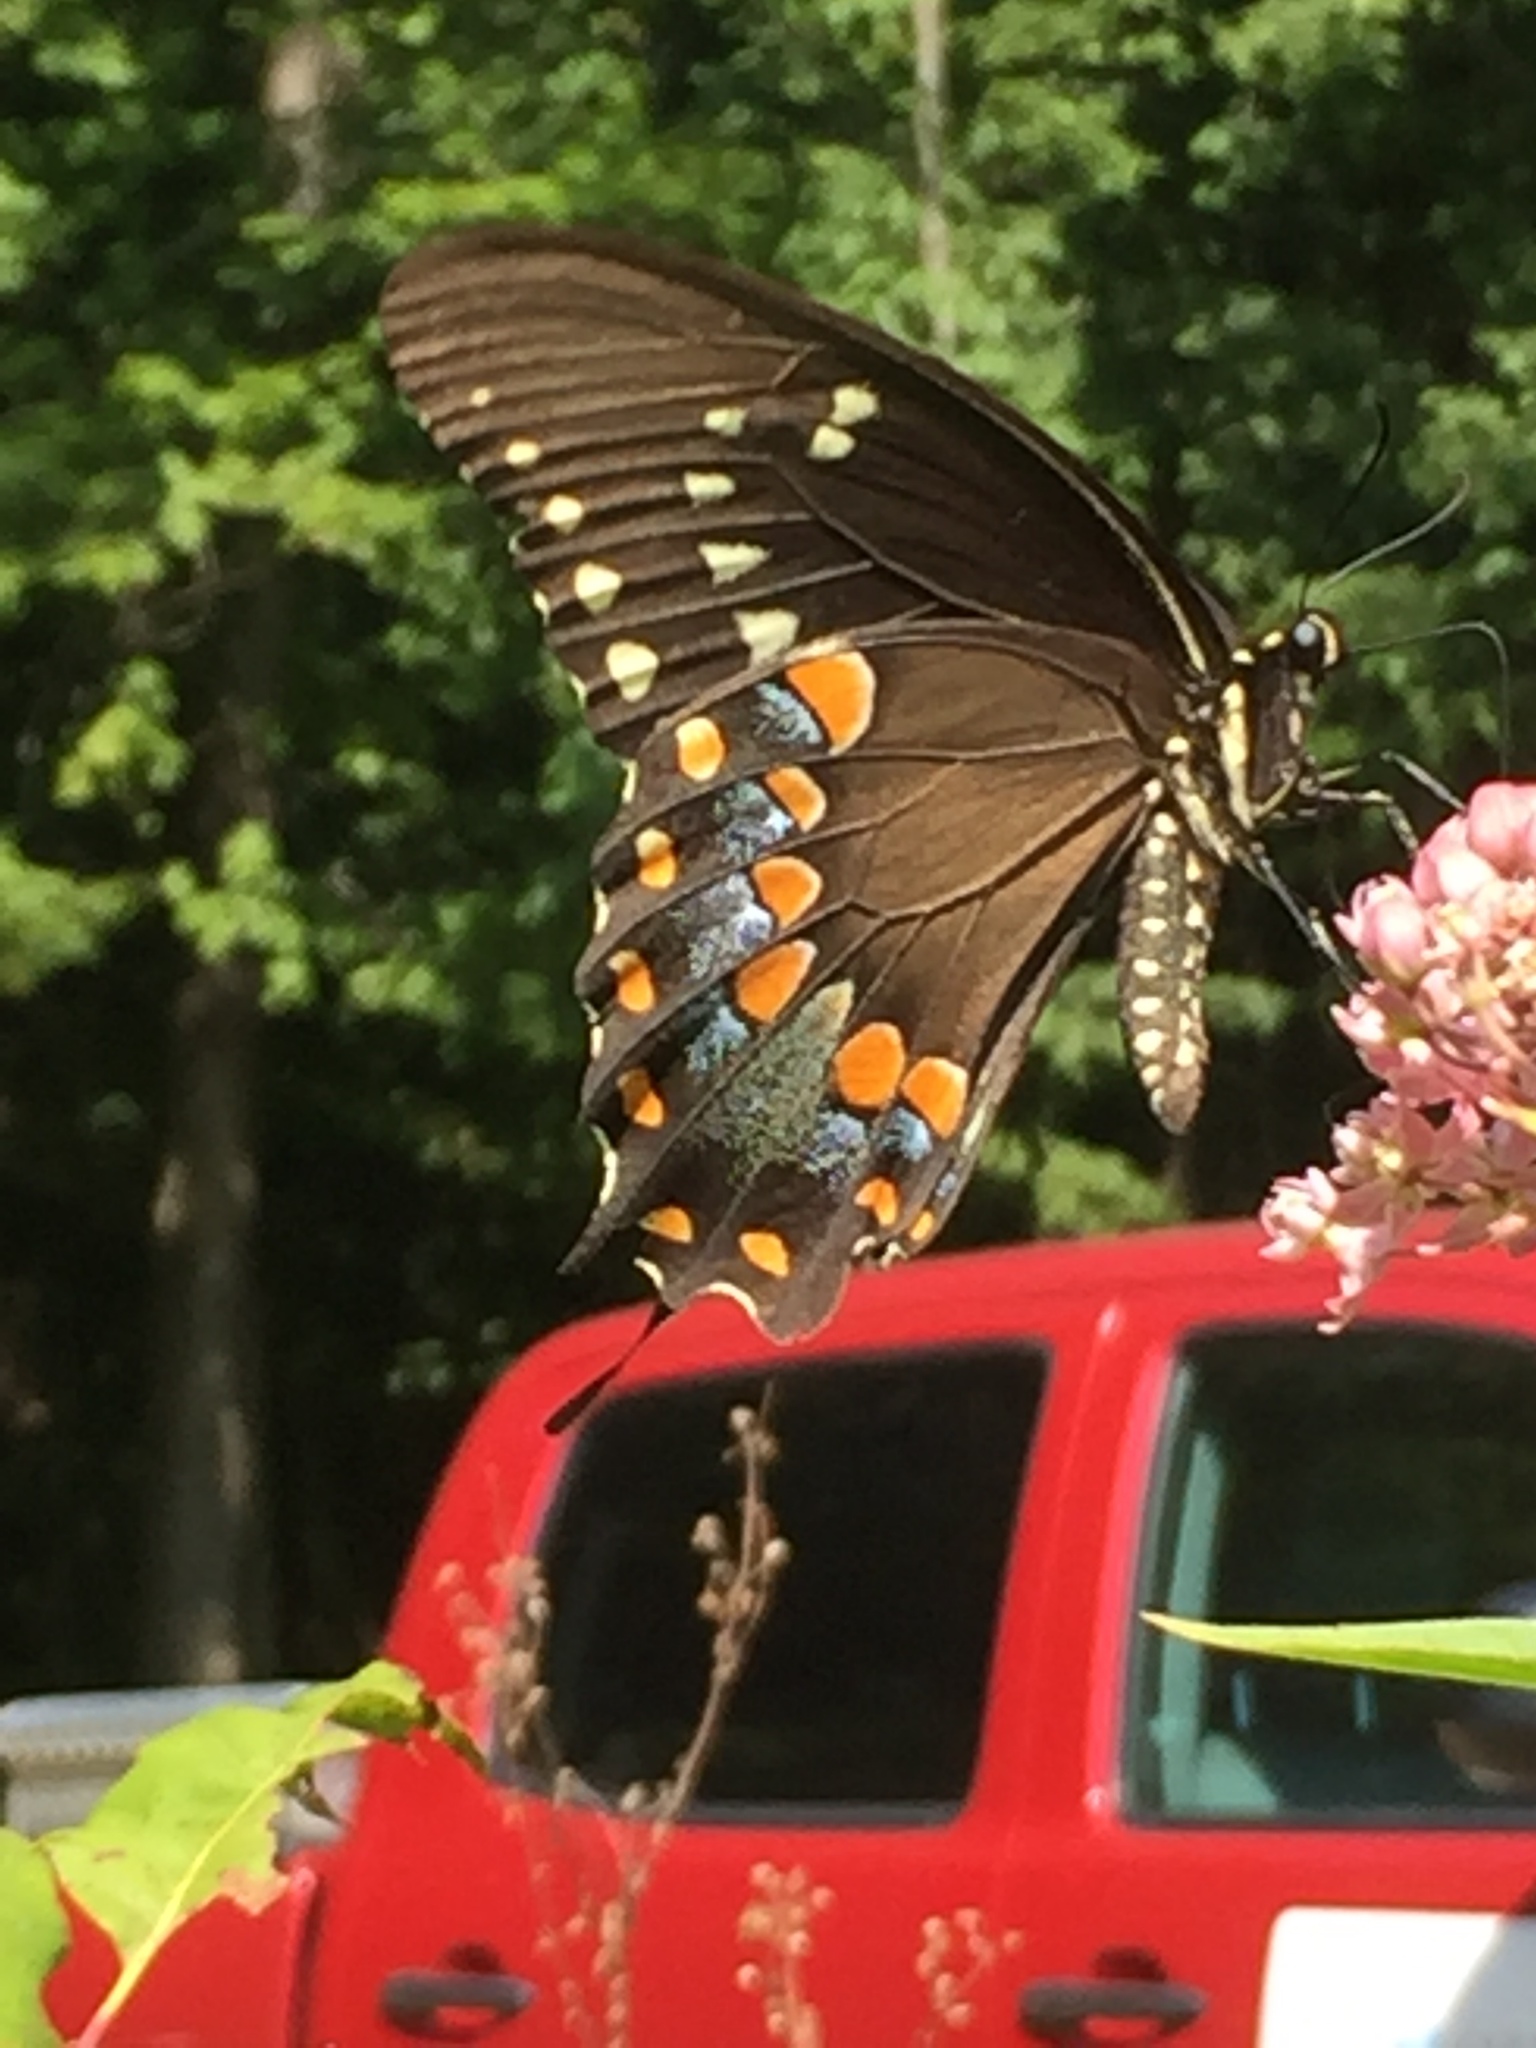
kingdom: Animalia
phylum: Arthropoda
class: Insecta
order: Lepidoptera
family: Papilionidae
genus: Papilio
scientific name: Papilio troilus
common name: Spicebush swallowtail
